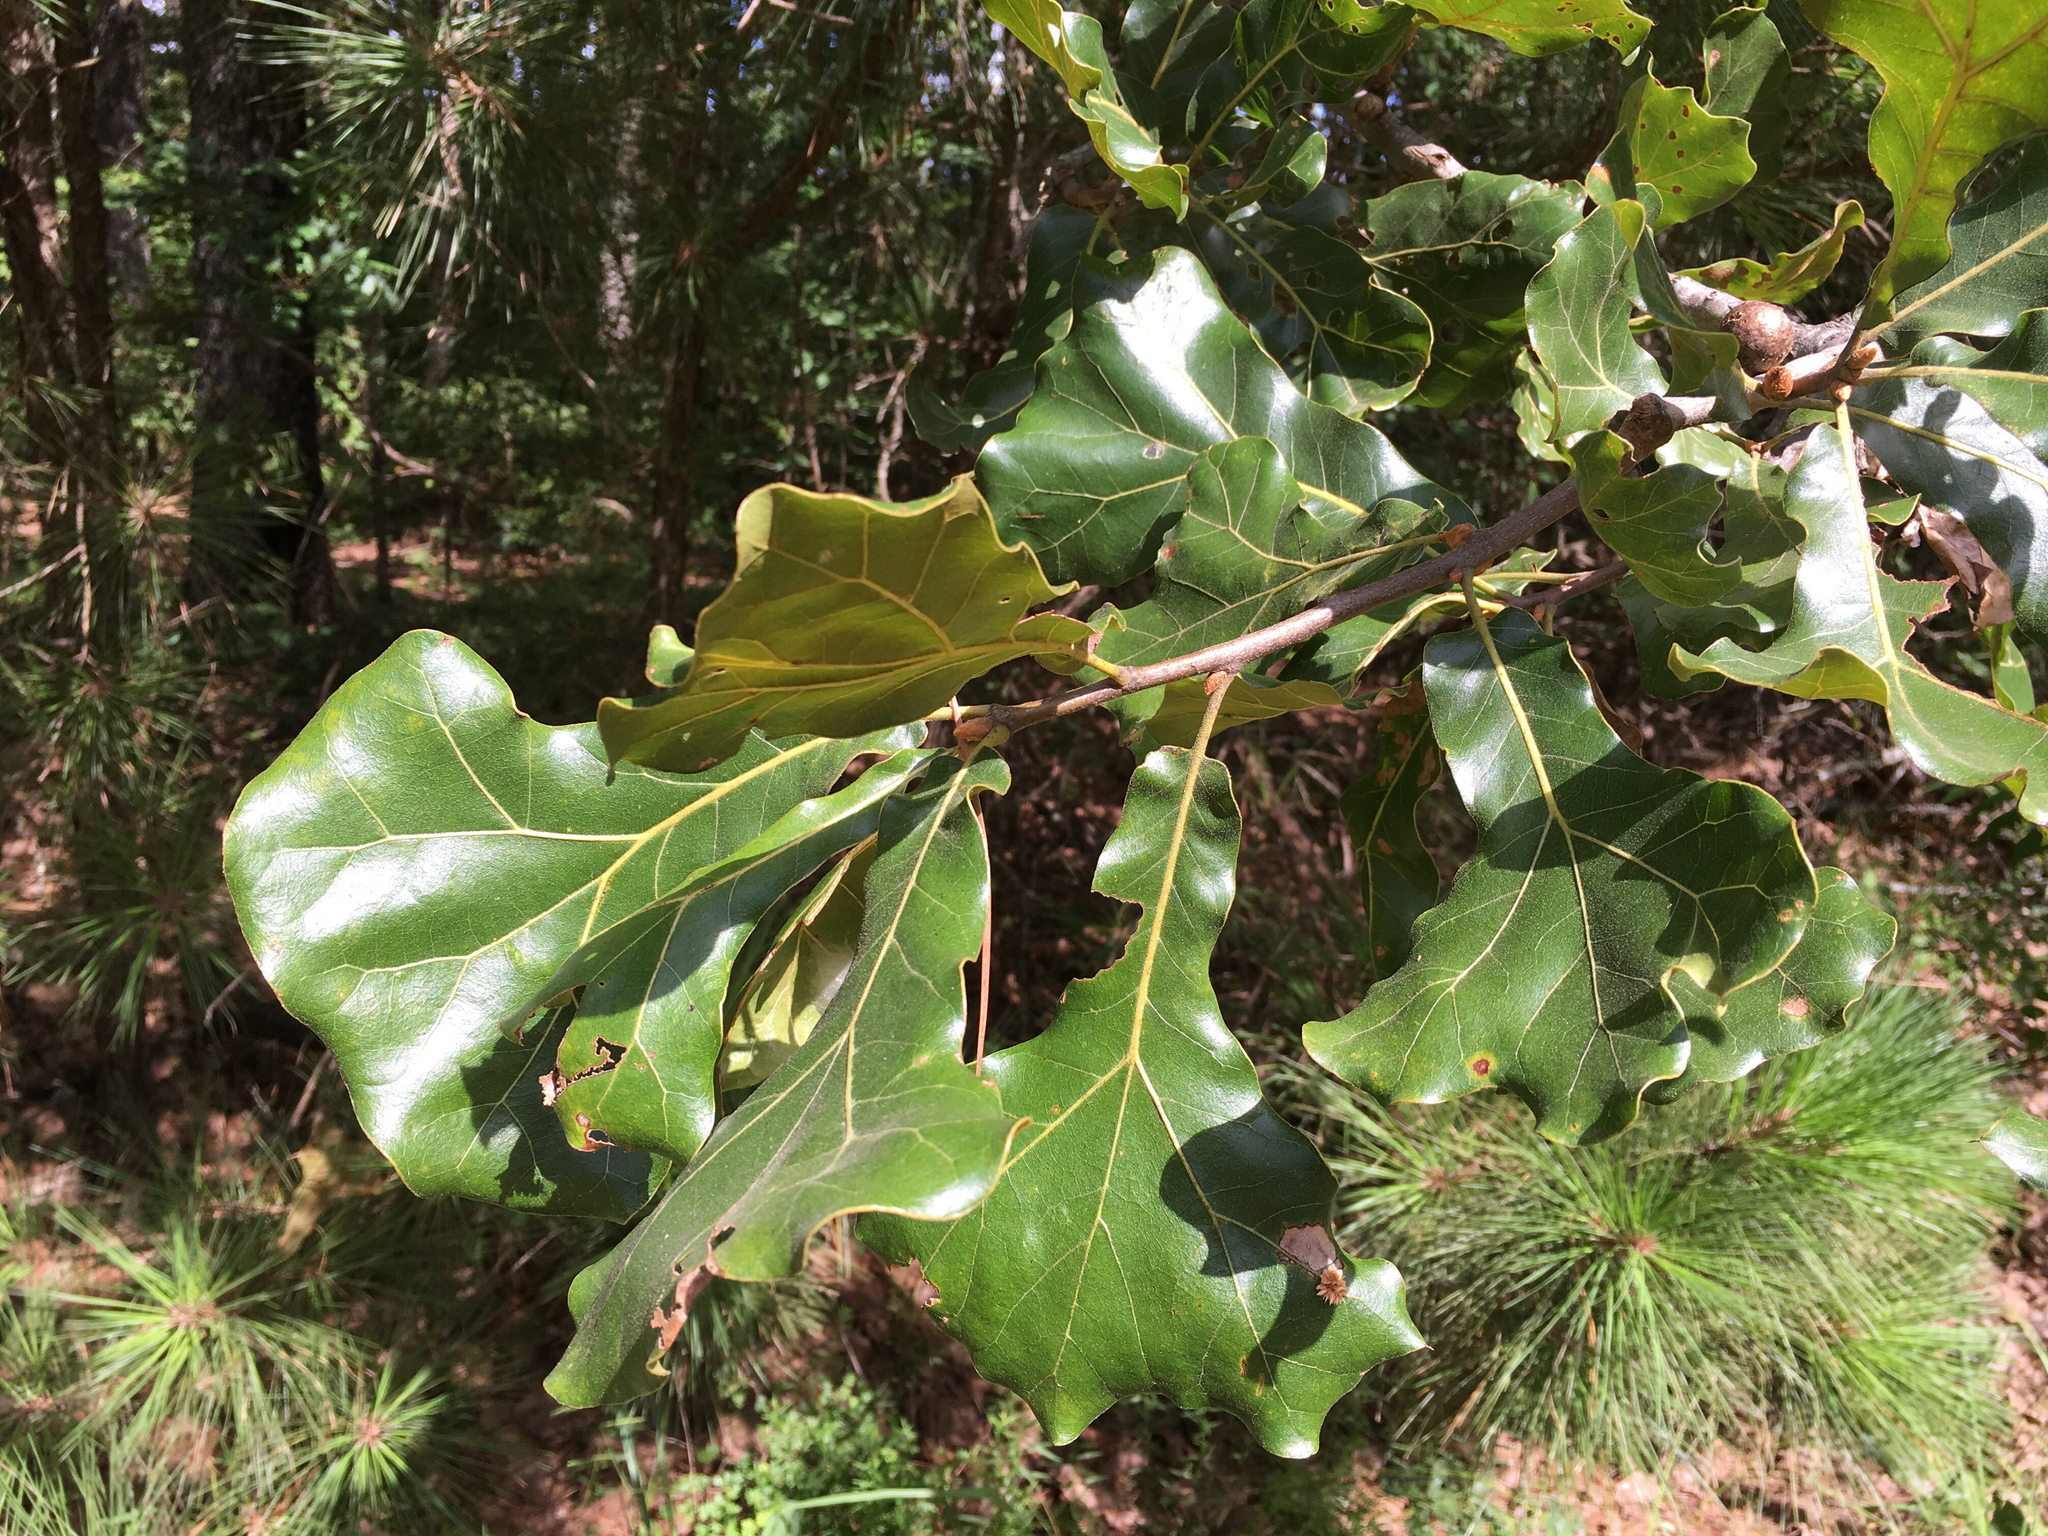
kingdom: Plantae
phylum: Tracheophyta
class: Magnoliopsida
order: Fagales
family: Fagaceae
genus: Quercus
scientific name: Quercus marilandica
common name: Blackjack oak
